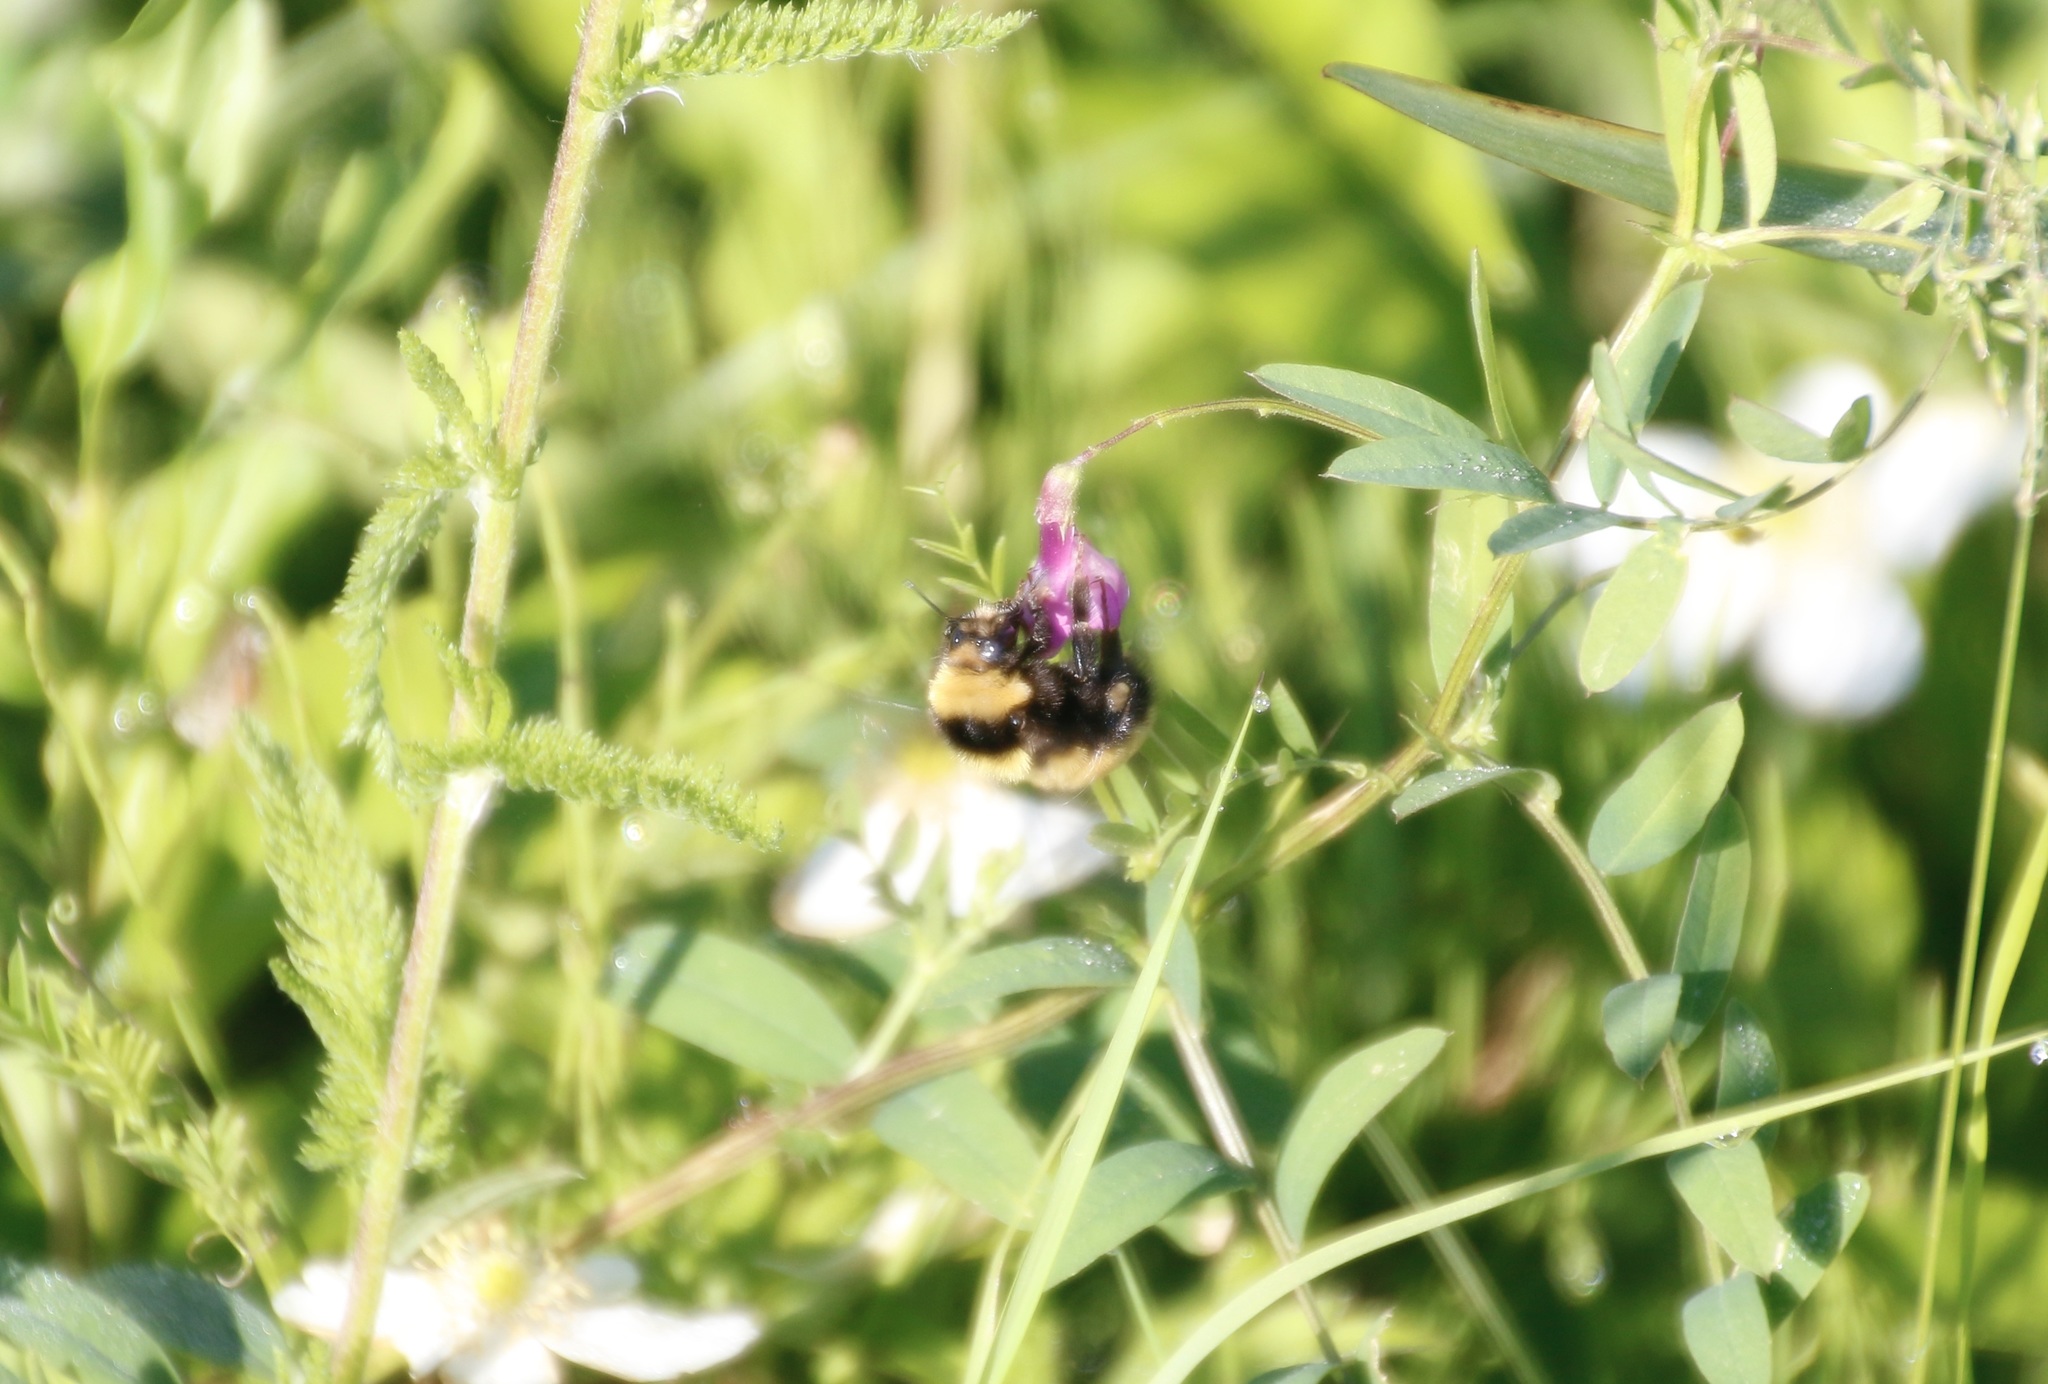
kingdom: Animalia
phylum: Arthropoda
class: Insecta
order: Hymenoptera
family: Apidae
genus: Bombus
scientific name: Bombus borealis
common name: Northern amber bumble bee
